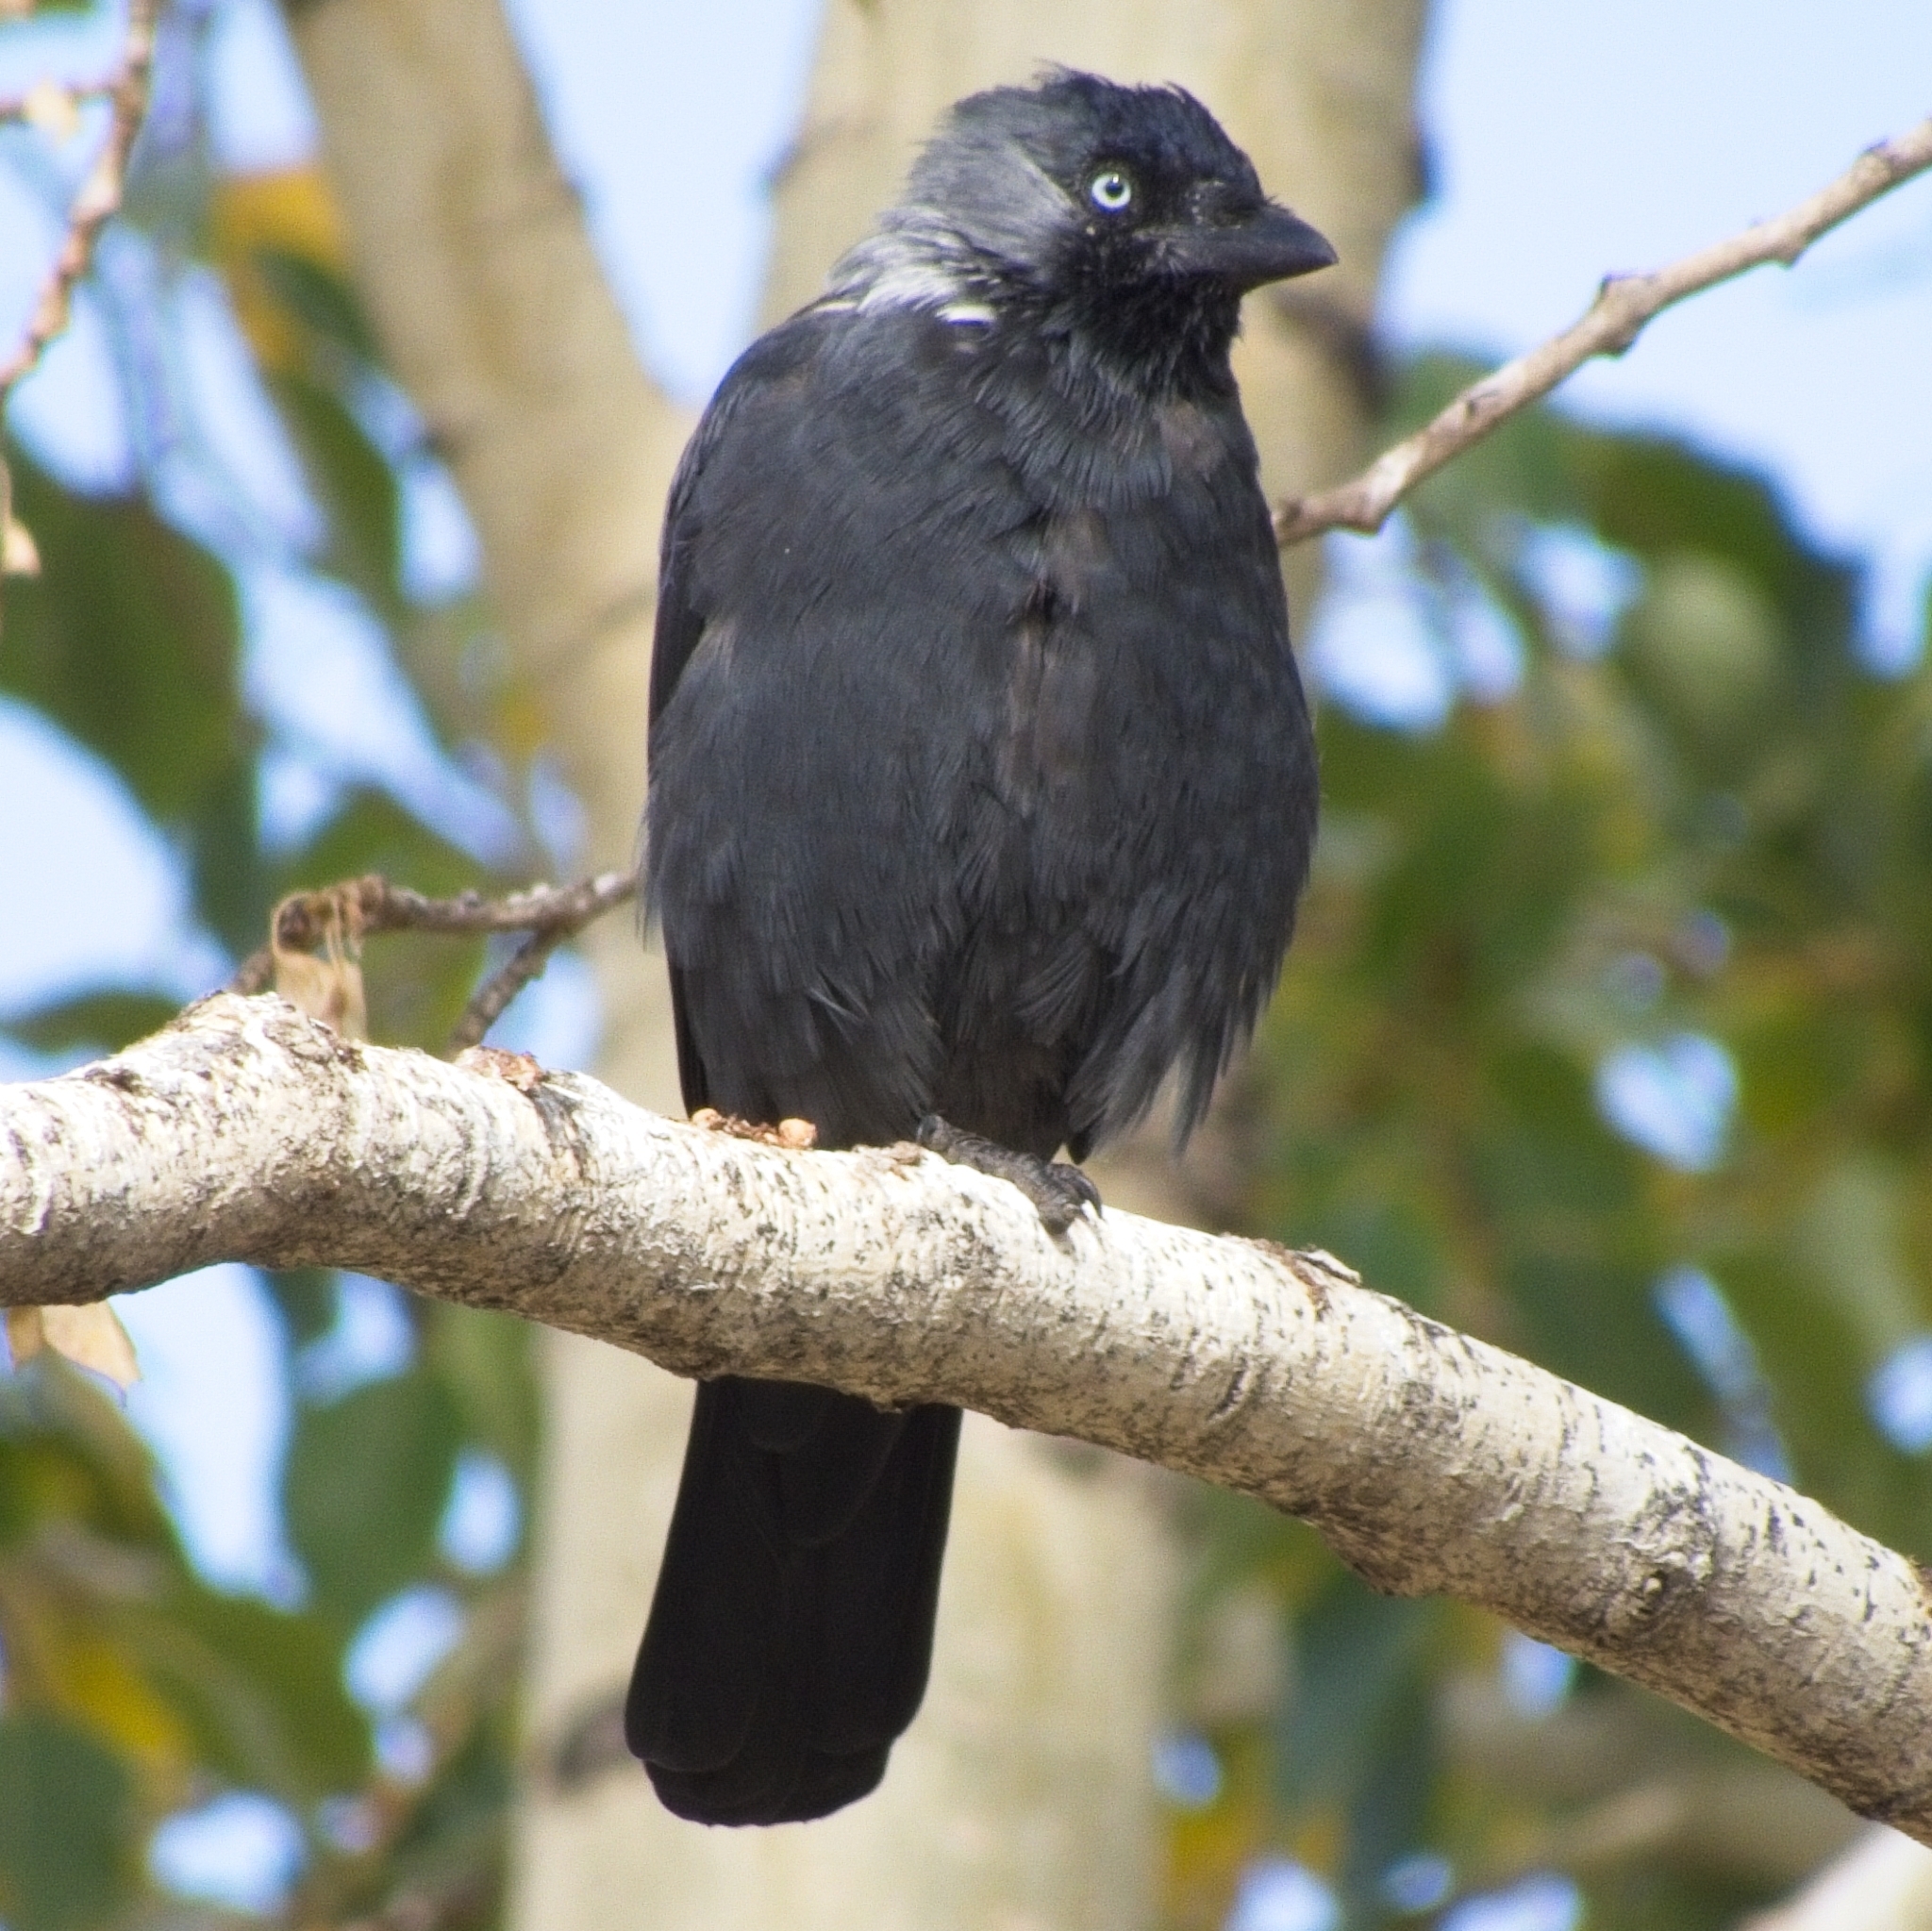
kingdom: Animalia
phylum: Chordata
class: Aves
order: Passeriformes
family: Corvidae
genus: Coloeus
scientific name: Coloeus monedula
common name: Western jackdaw
